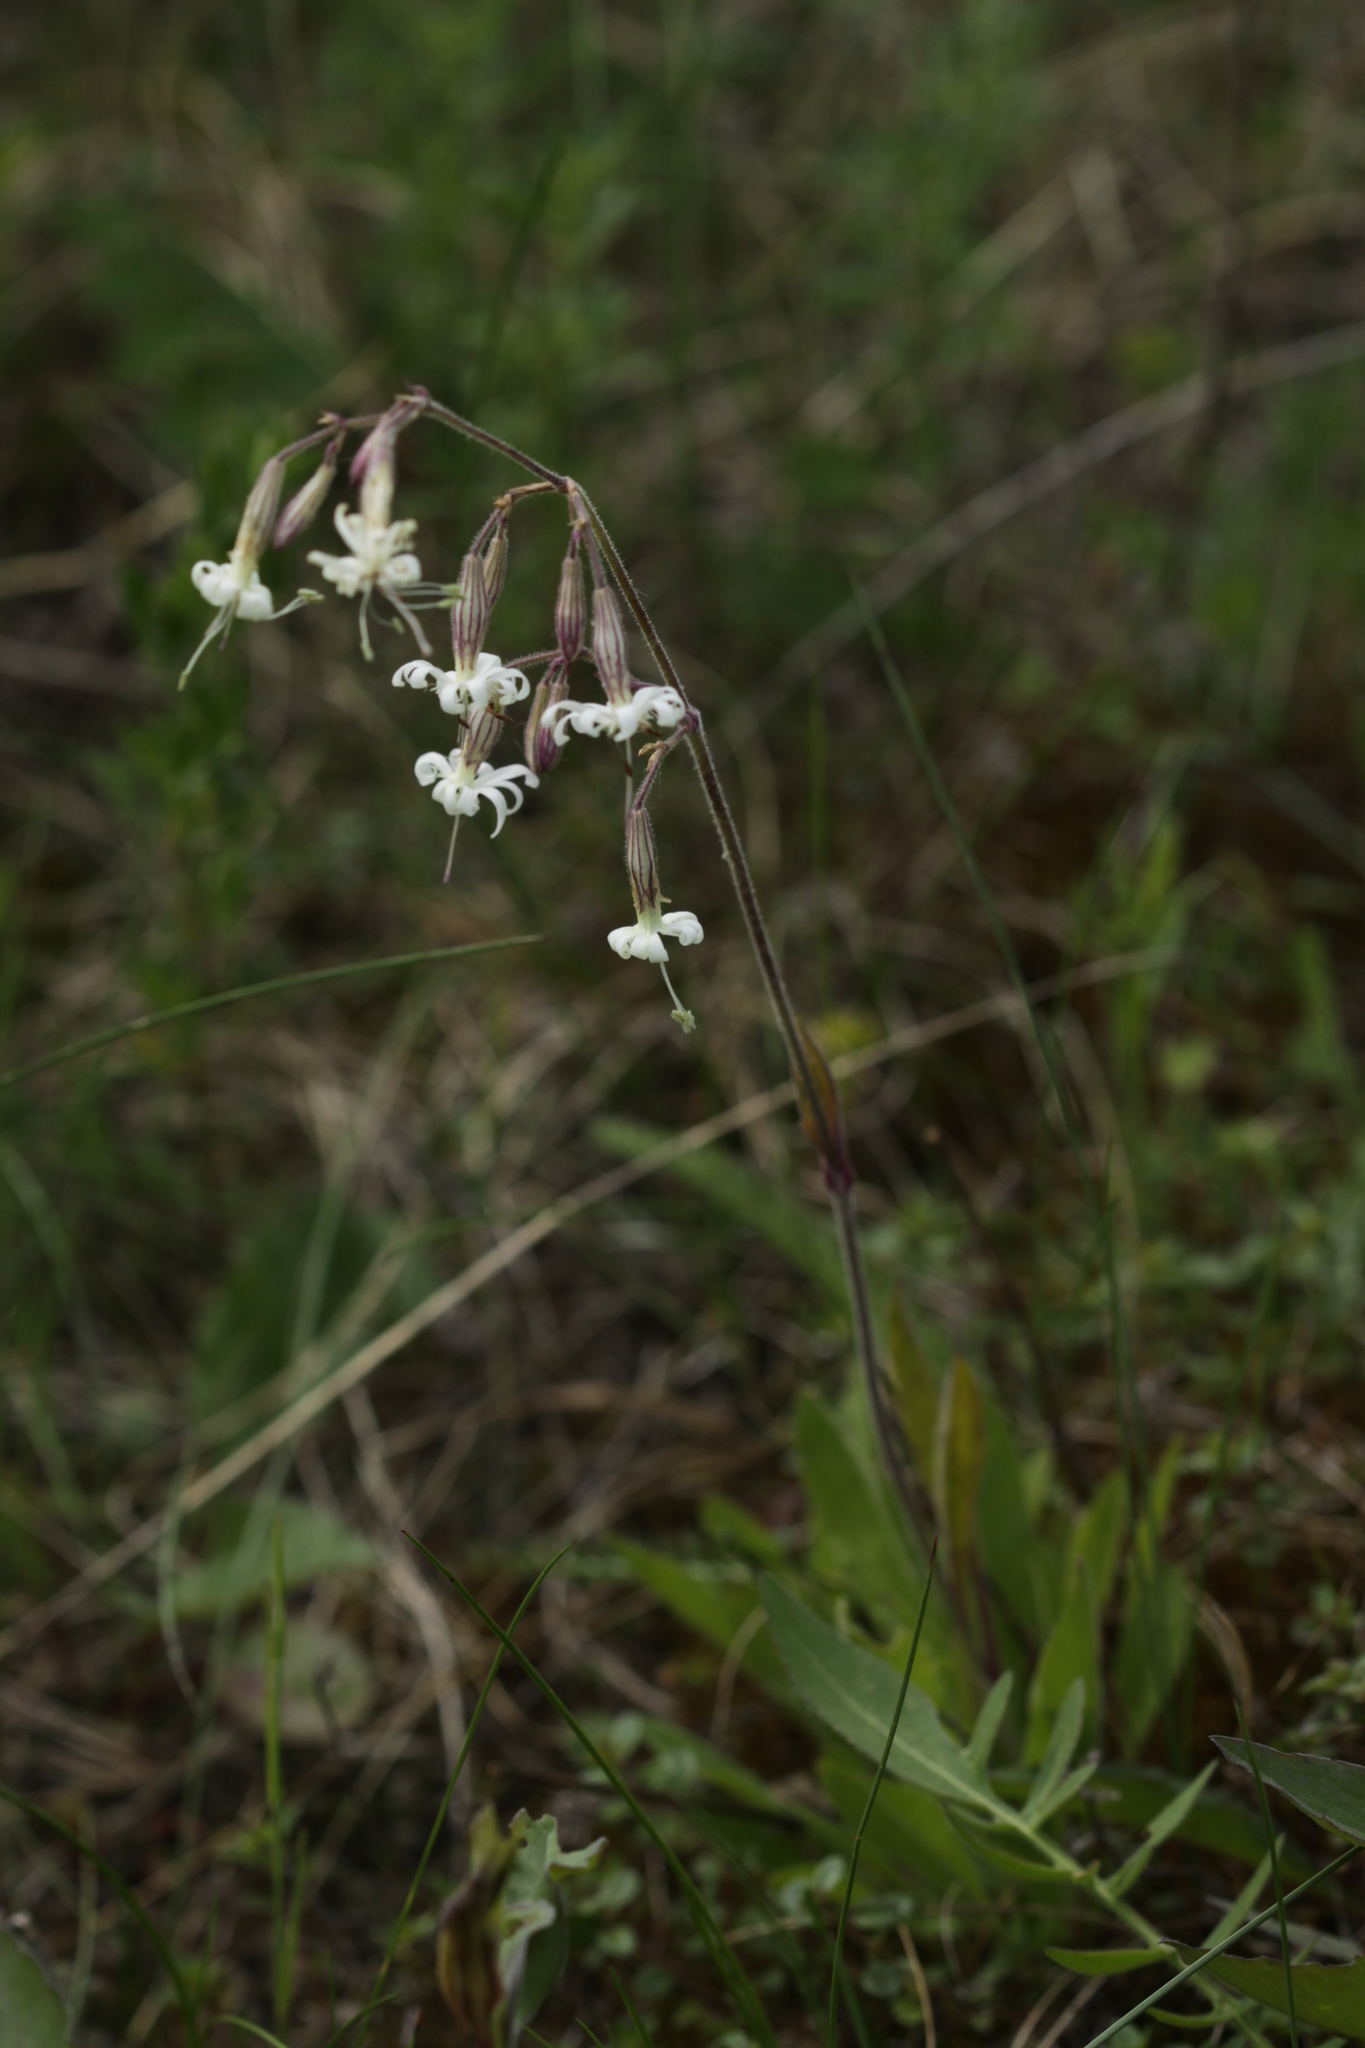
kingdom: Plantae
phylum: Tracheophyta
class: Magnoliopsida
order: Caryophyllales
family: Caryophyllaceae
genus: Silene
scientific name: Silene nutans
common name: Nottingham catchfly
